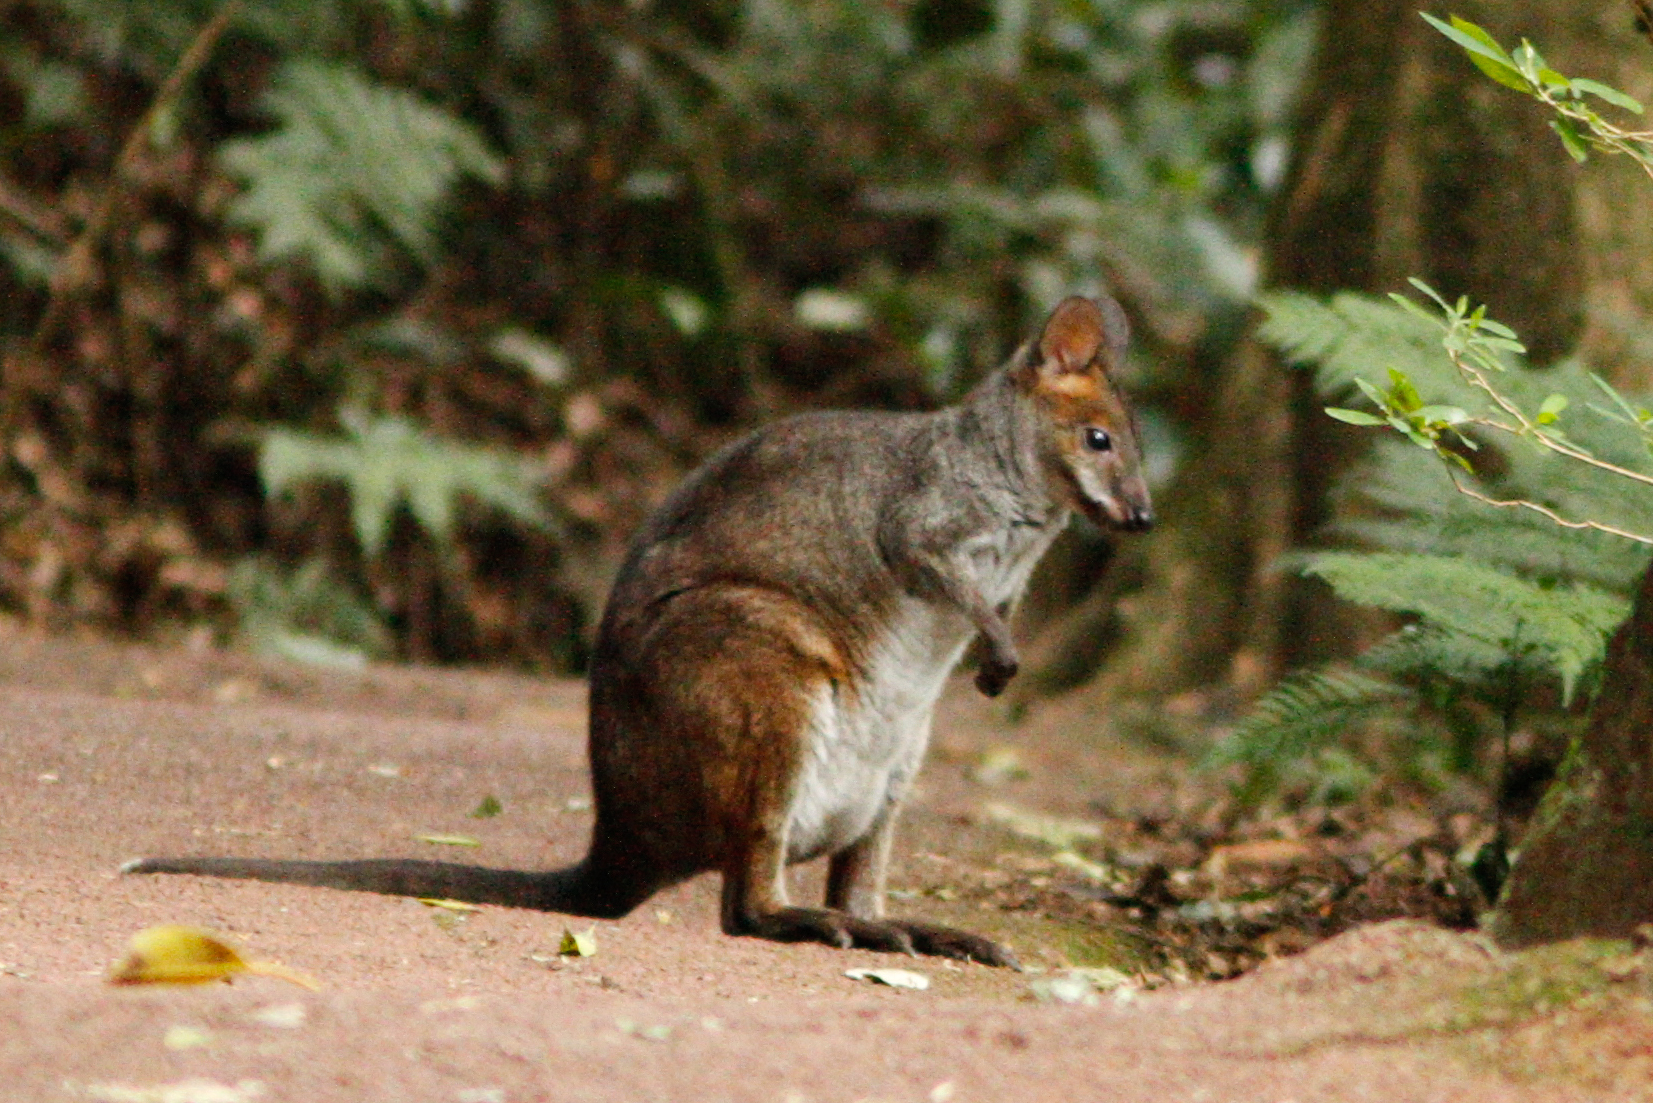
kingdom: Animalia
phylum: Chordata
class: Mammalia
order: Diprotodontia
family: Macropodidae
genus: Thylogale
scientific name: Thylogale stigmatica
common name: Red-legged pademelon
